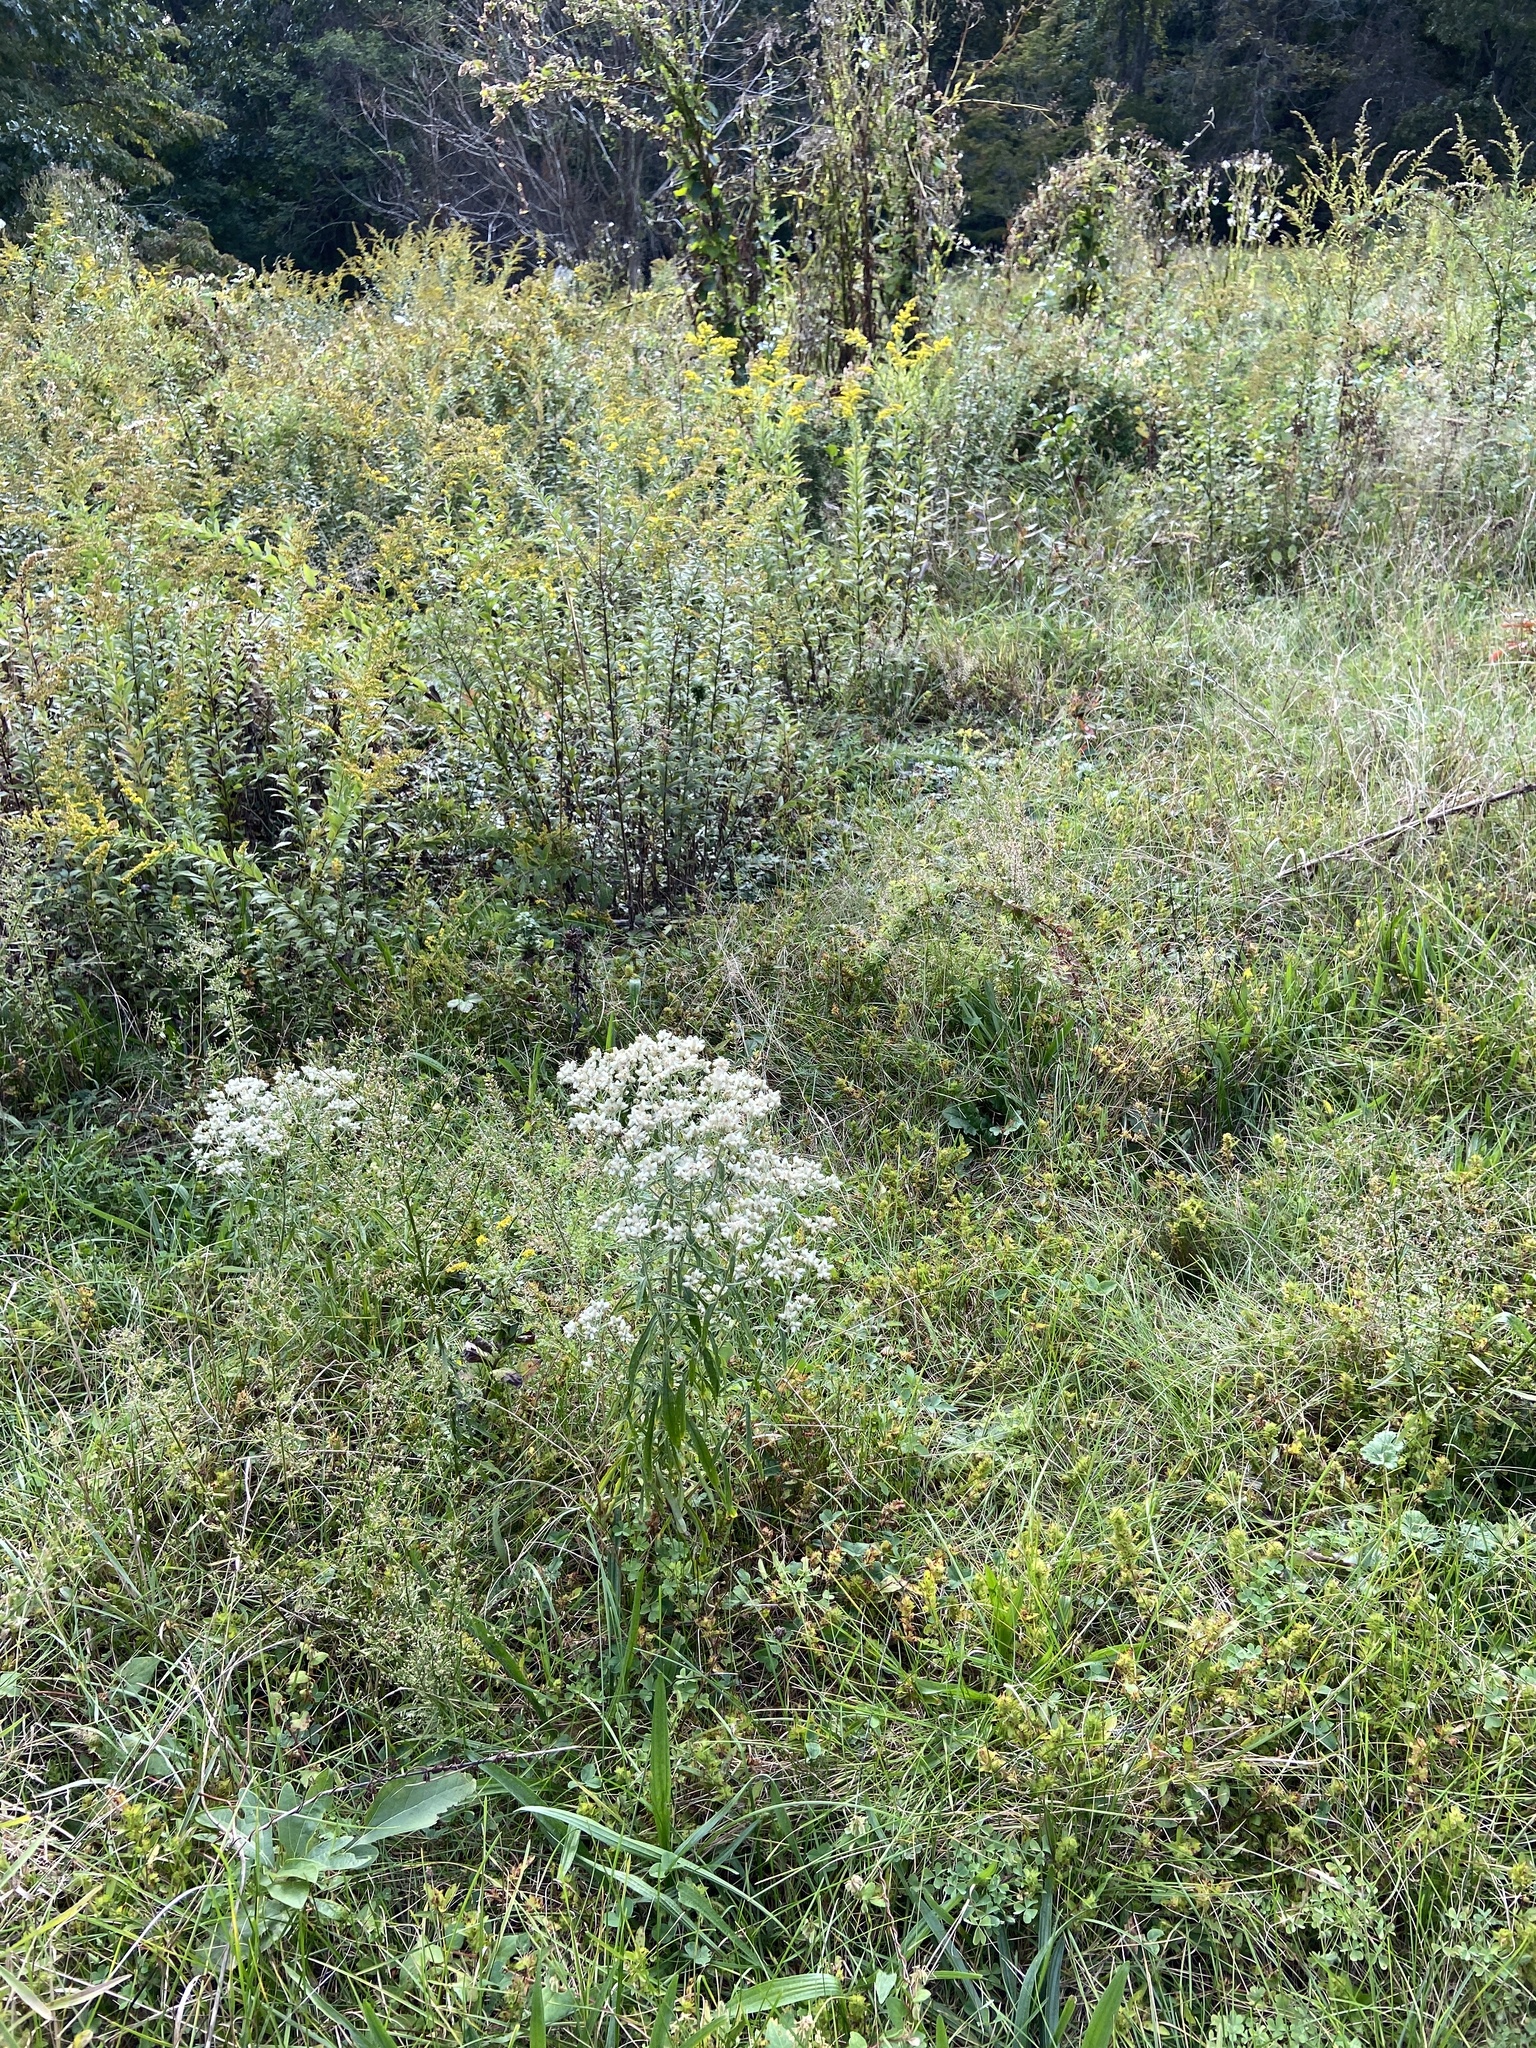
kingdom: Plantae
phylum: Tracheophyta
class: Magnoliopsida
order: Asterales
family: Asteraceae
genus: Pseudognaphalium
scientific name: Pseudognaphalium obtusifolium
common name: Eastern rabbit-tobacco
